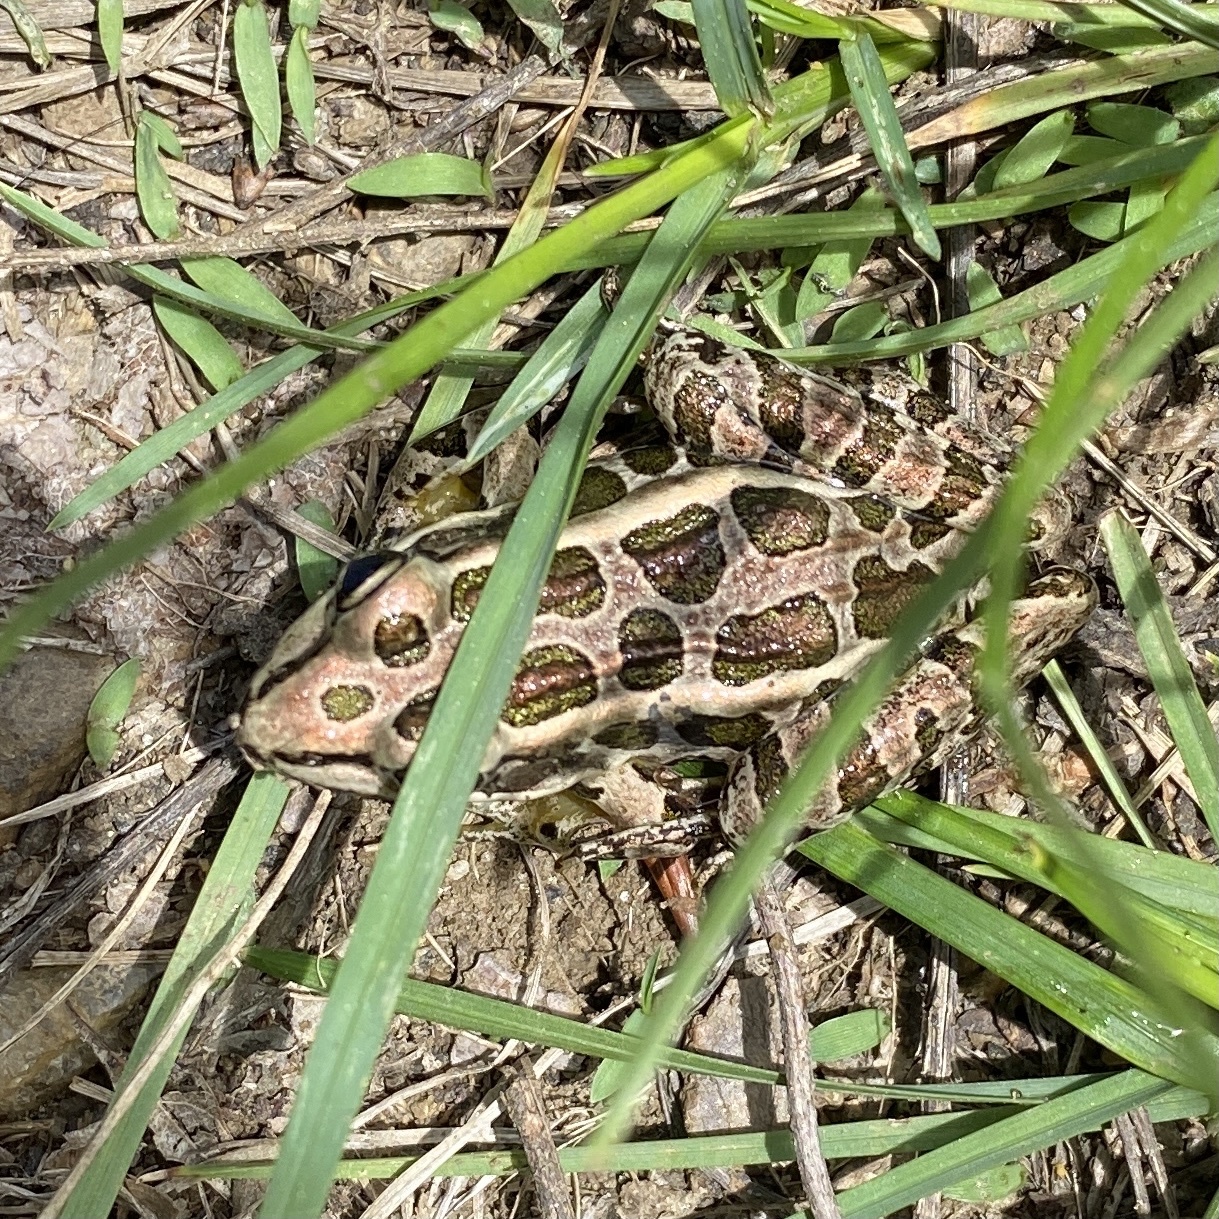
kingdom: Animalia
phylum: Chordata
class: Amphibia
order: Anura
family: Ranidae
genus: Lithobates
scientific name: Lithobates palustris
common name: Pickerel frog
